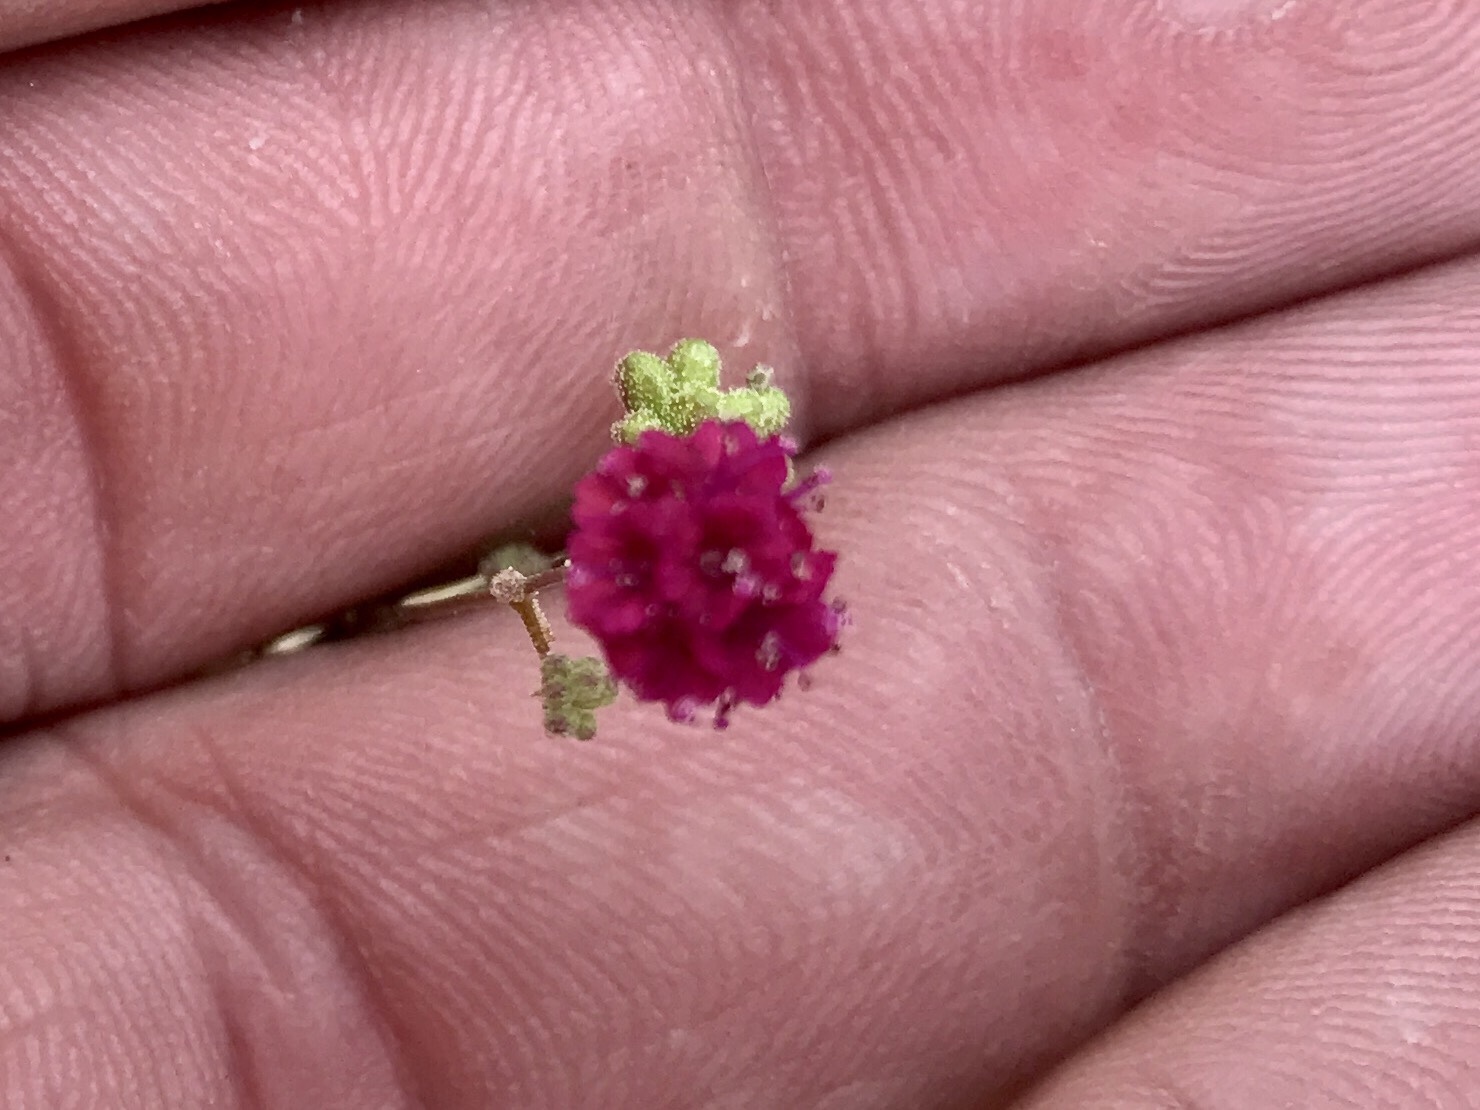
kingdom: Plantae
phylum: Tracheophyta
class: Magnoliopsida
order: Caryophyllales
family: Nyctaginaceae
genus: Boerhavia
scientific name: Boerhavia coccinea
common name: Scarlet spiderling
